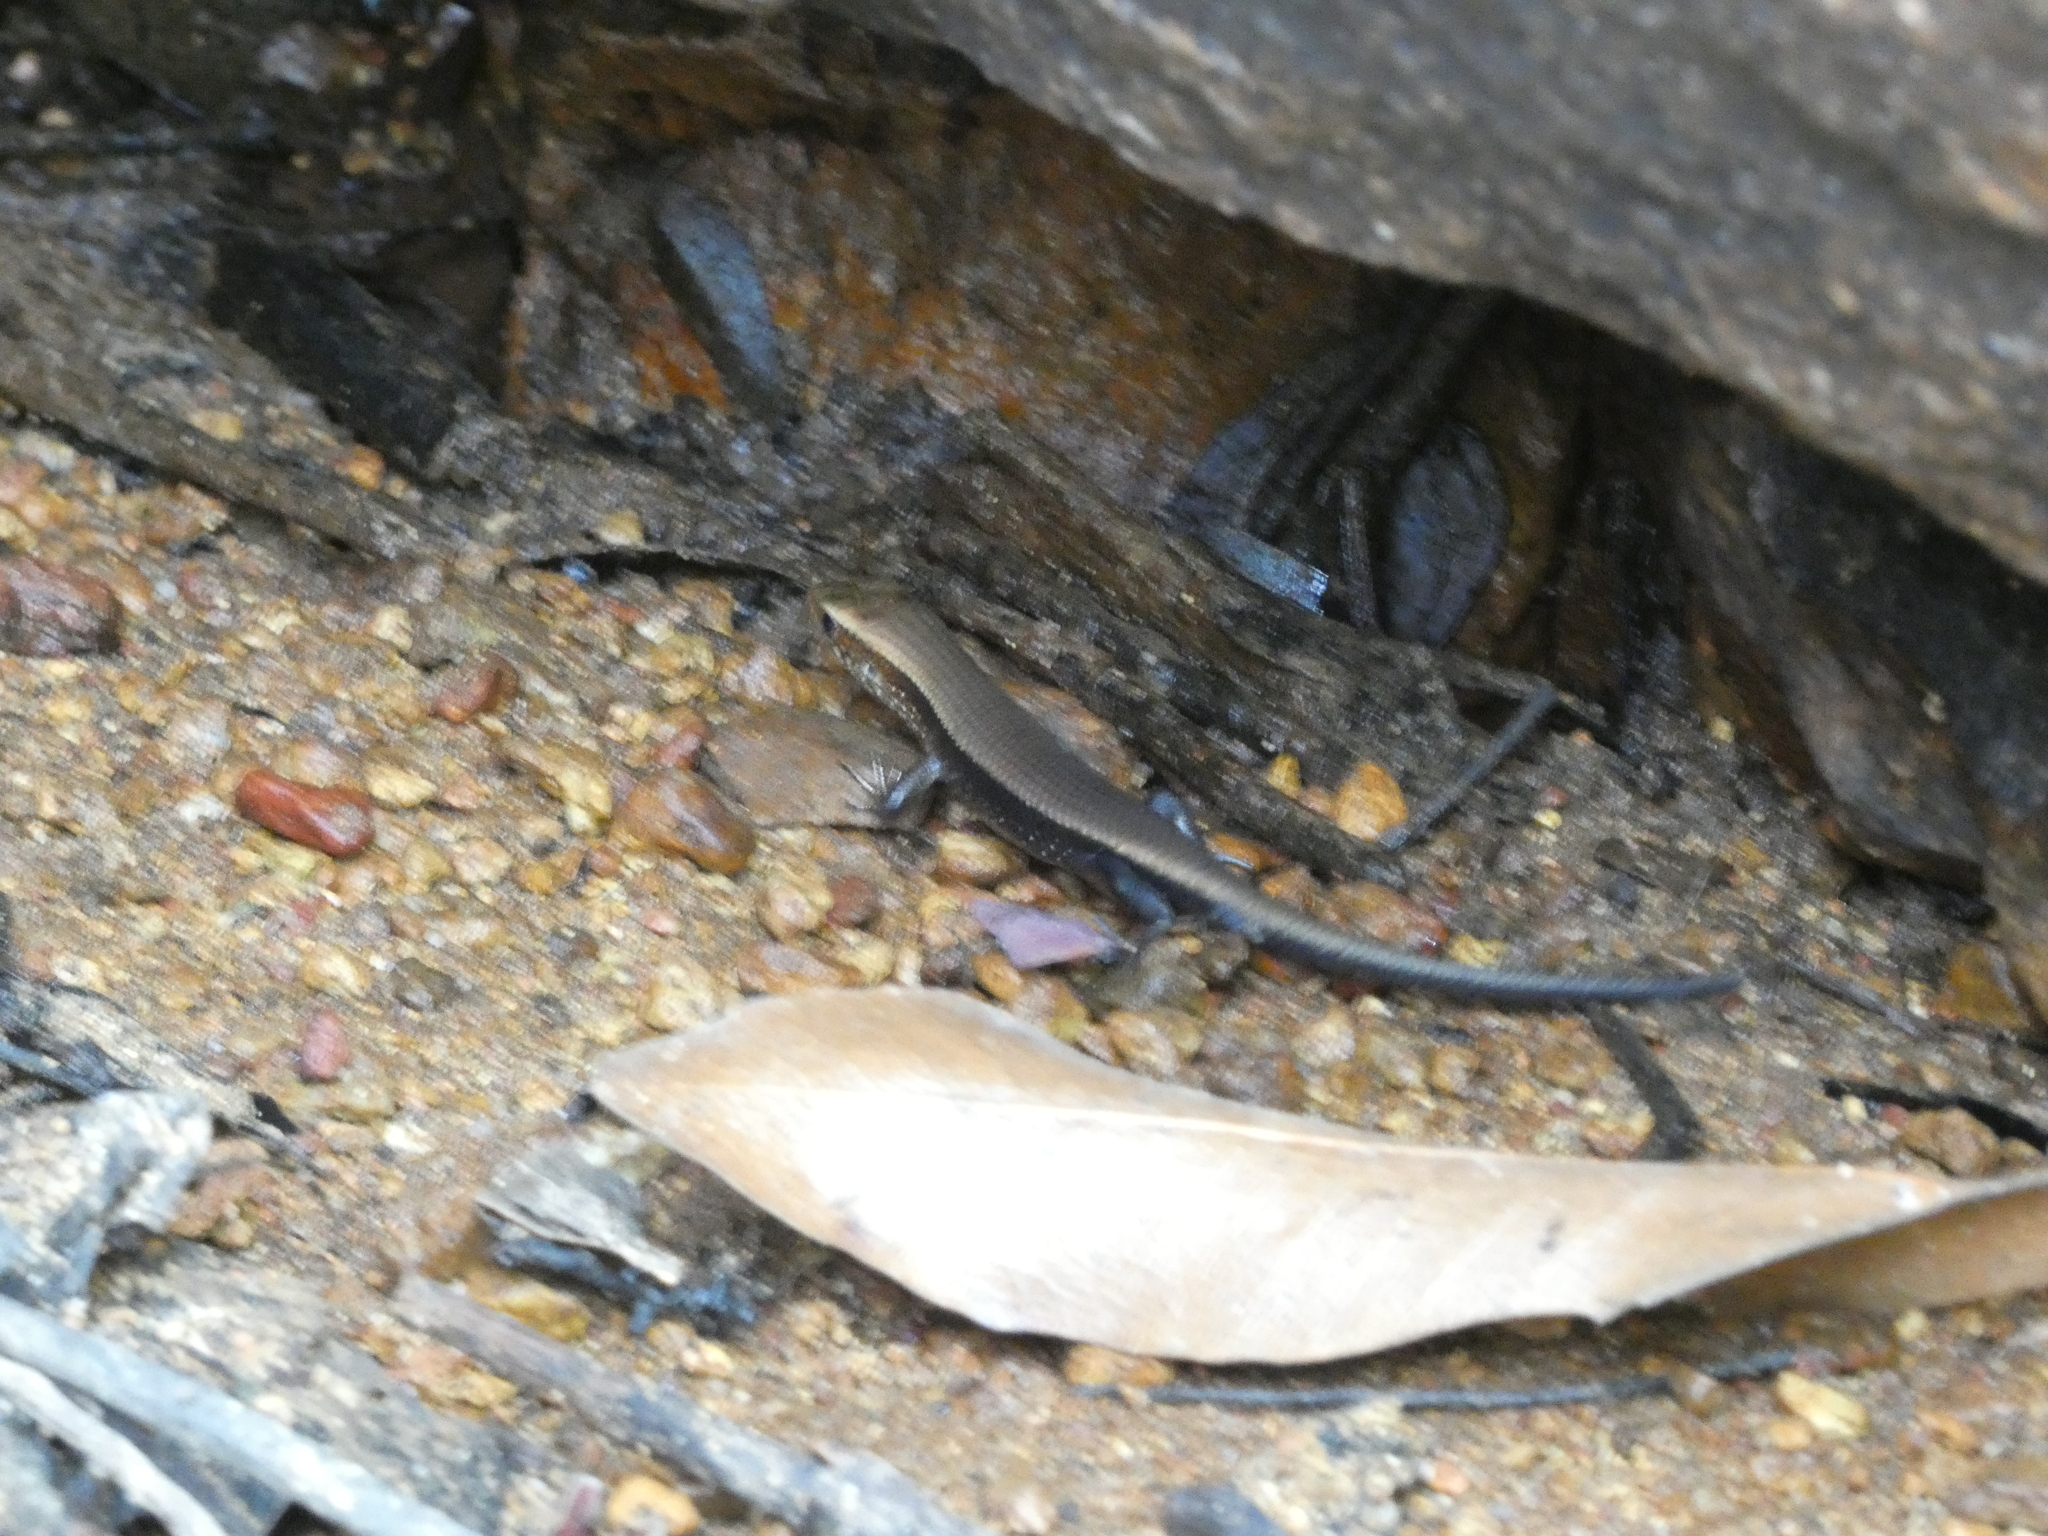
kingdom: Animalia
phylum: Chordata
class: Squamata
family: Scincidae
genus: Eutropis
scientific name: Eutropis multifasciata
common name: Common mabuya
